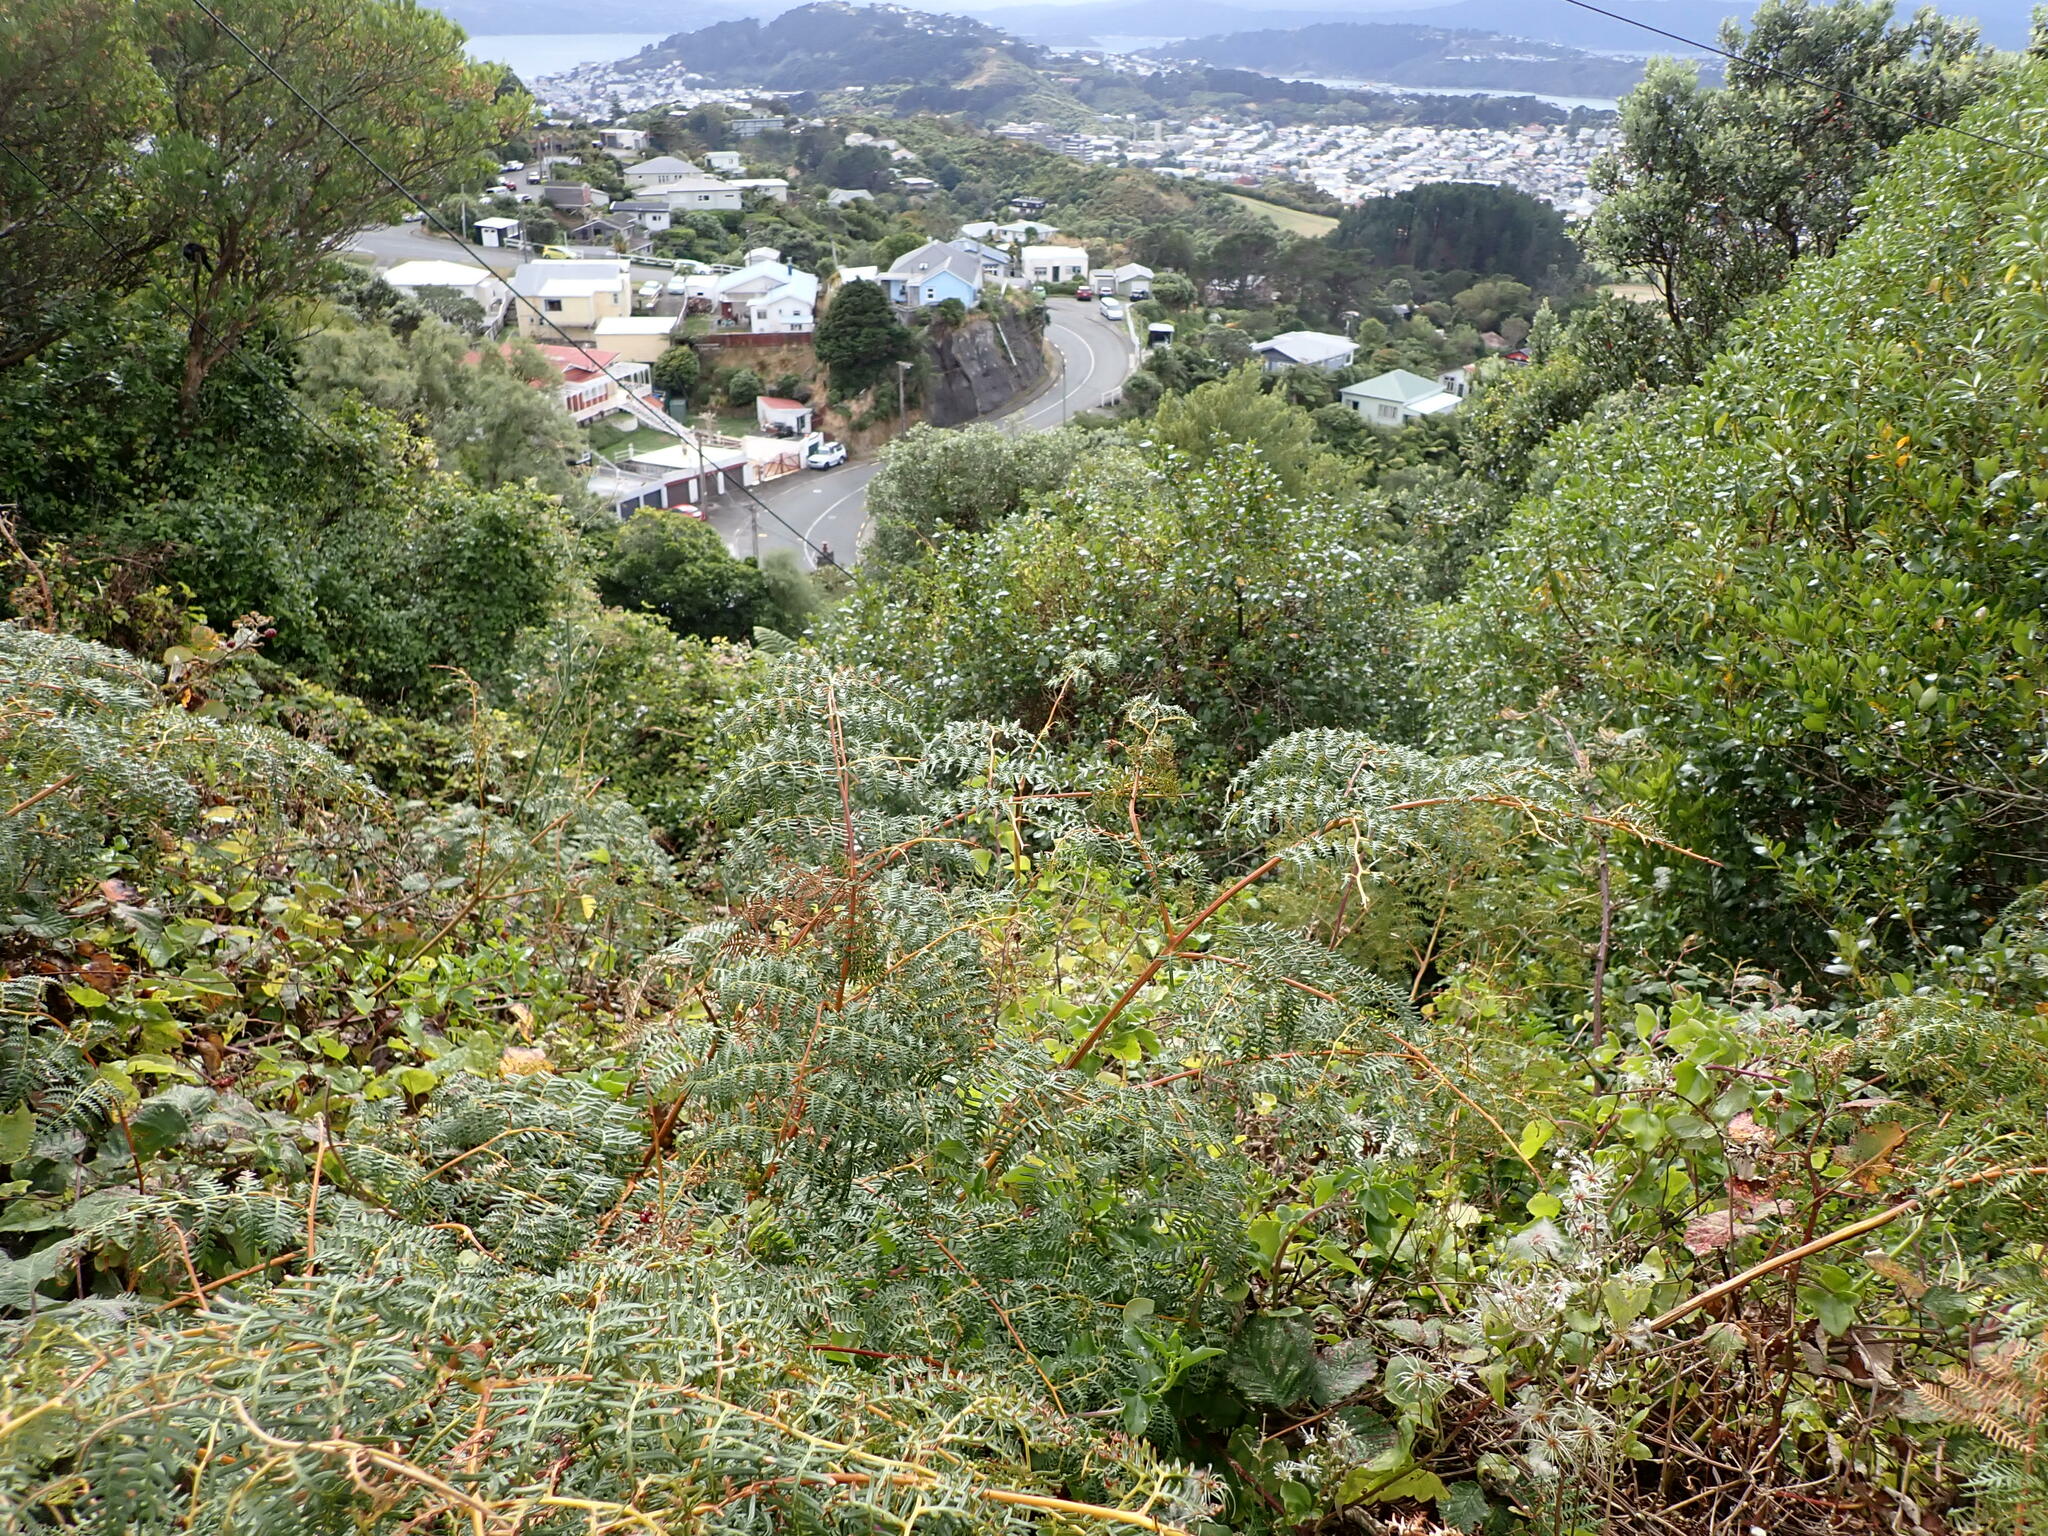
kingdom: Plantae
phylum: Tracheophyta
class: Polypodiopsida
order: Polypodiales
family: Dennstaedtiaceae
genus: Pteridium
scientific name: Pteridium esculentum
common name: Bracken fern
